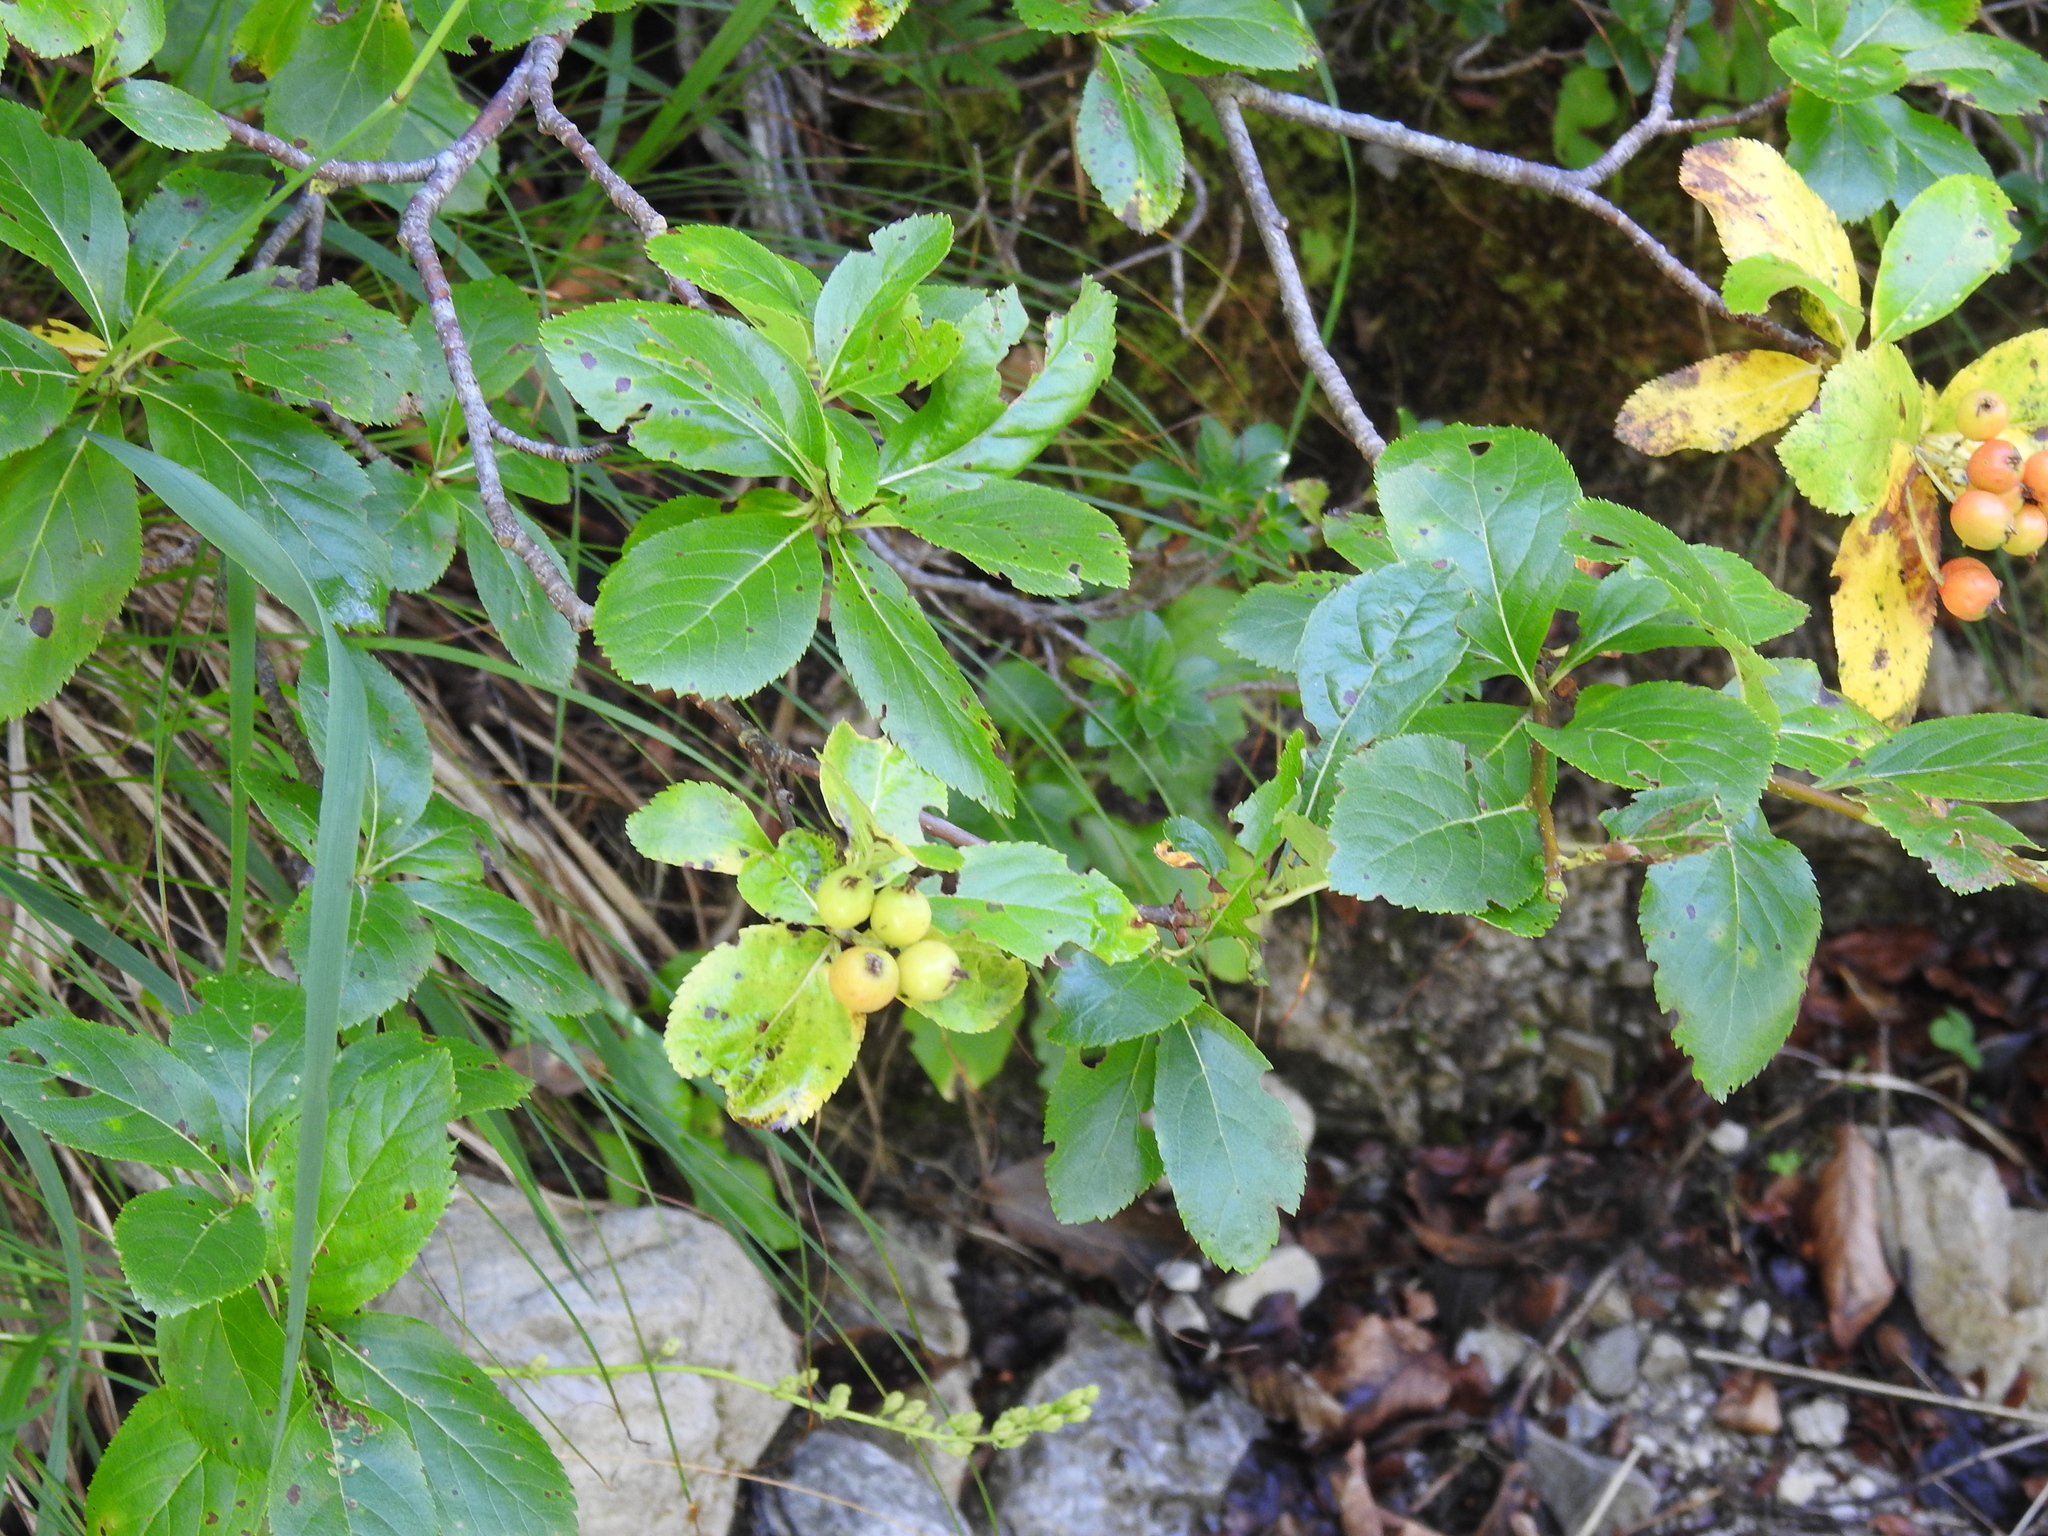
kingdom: Plantae
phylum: Tracheophyta
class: Magnoliopsida
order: Rosales
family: Rosaceae
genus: Chamaemespilus
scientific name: Chamaemespilus alpina
